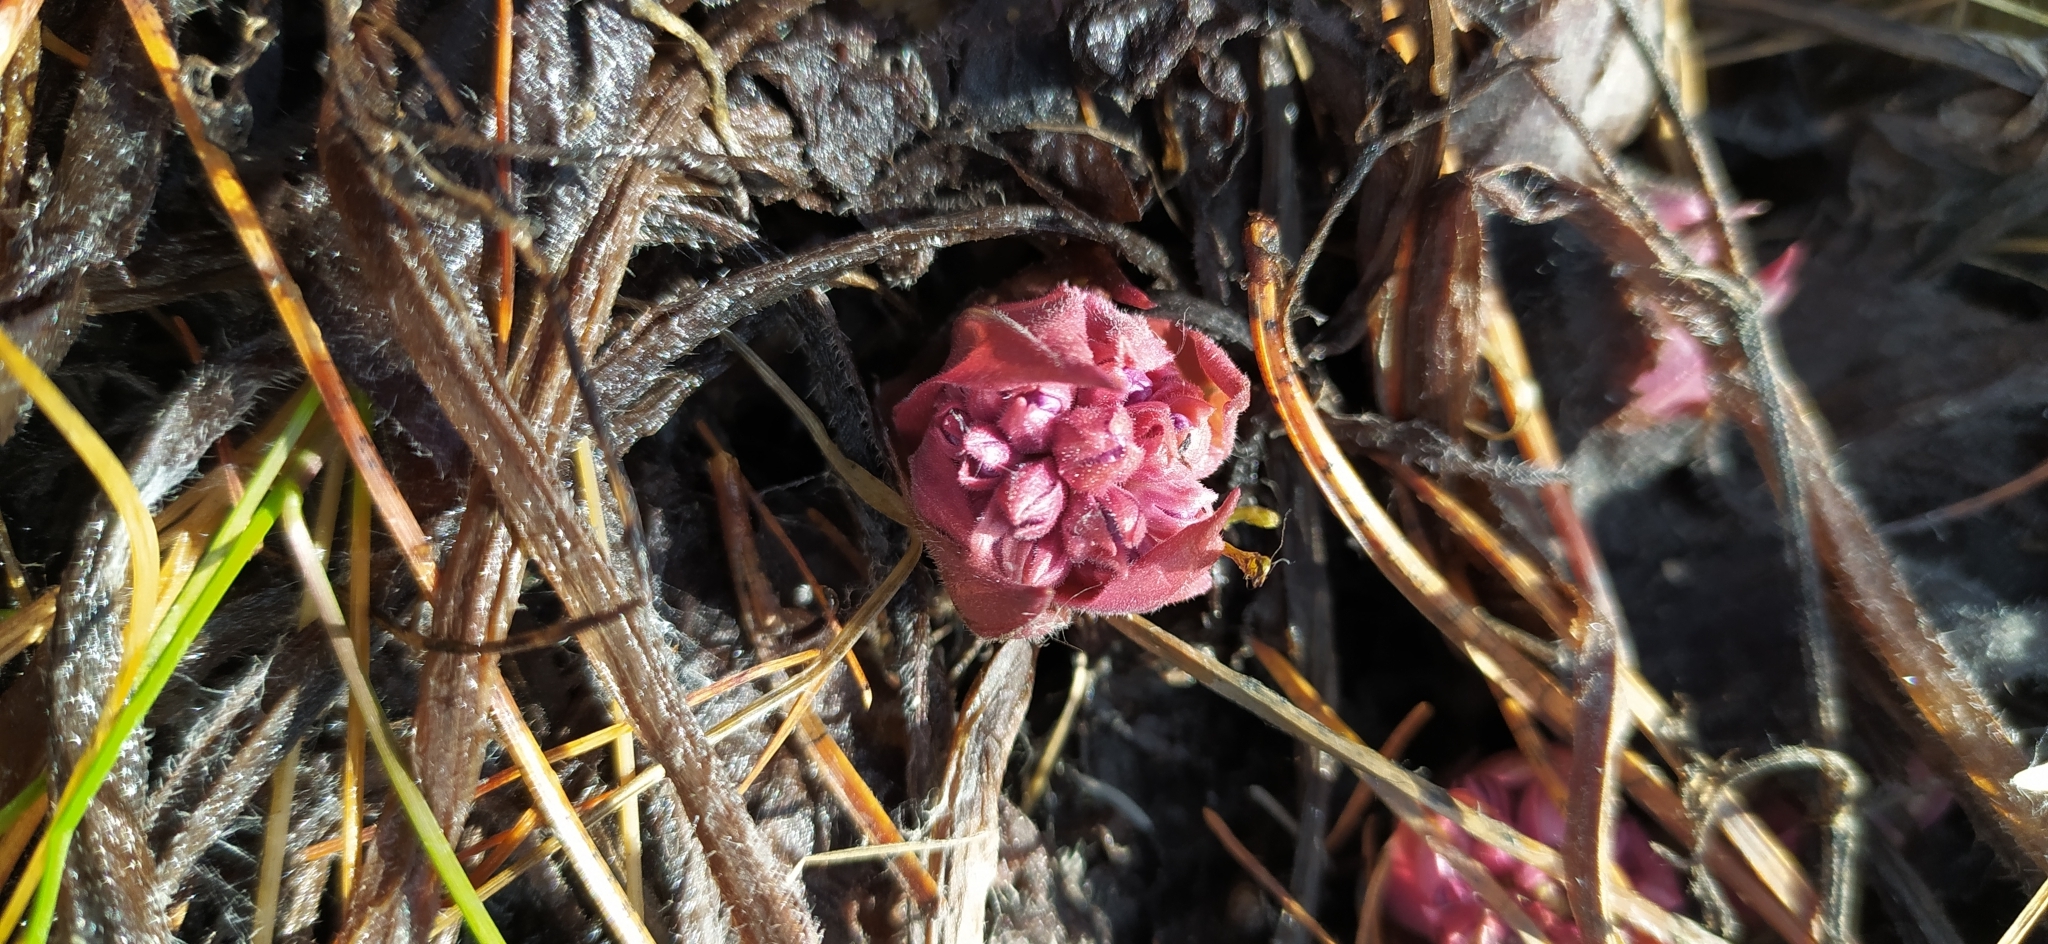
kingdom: Plantae
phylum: Tracheophyta
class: Magnoliopsida
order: Boraginales
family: Boraginaceae
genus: Pulmonaria
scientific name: Pulmonaria mollis
